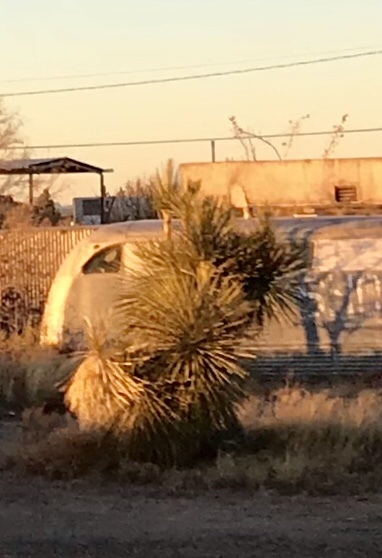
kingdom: Plantae
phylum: Tracheophyta
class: Liliopsida
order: Asparagales
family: Asparagaceae
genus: Yucca
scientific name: Yucca elata
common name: Palmella
